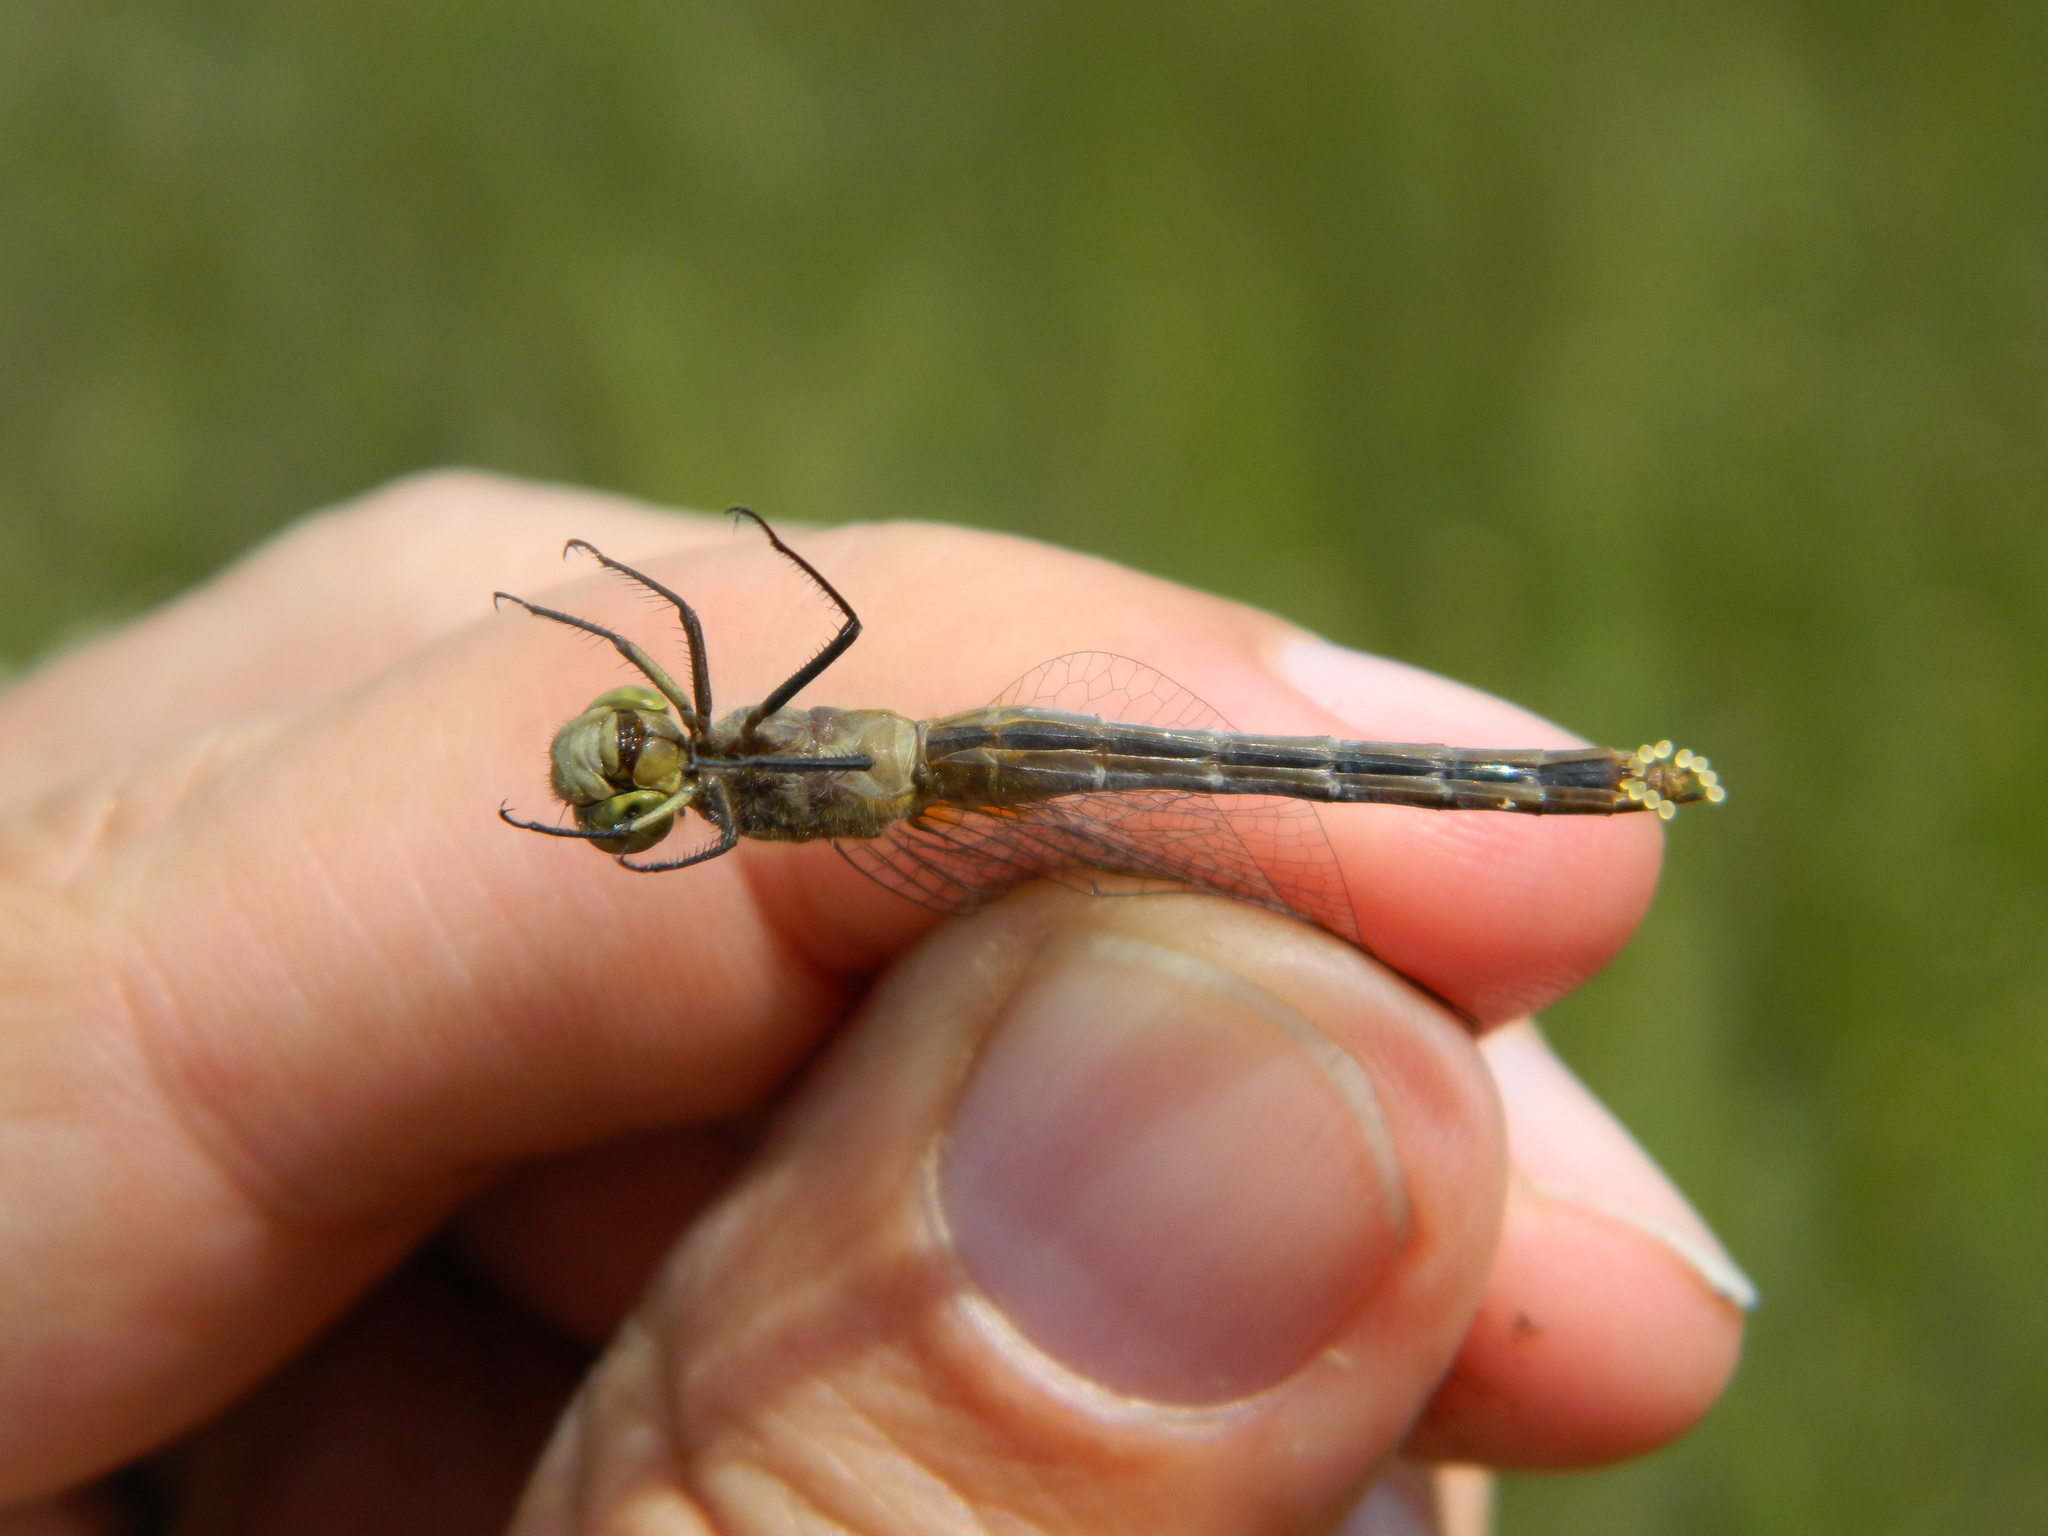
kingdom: Animalia
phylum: Arthropoda
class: Insecta
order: Odonata
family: Libellulidae
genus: Sympetrum
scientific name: Sympetrum obtrusum
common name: White-faced meadowhawk
